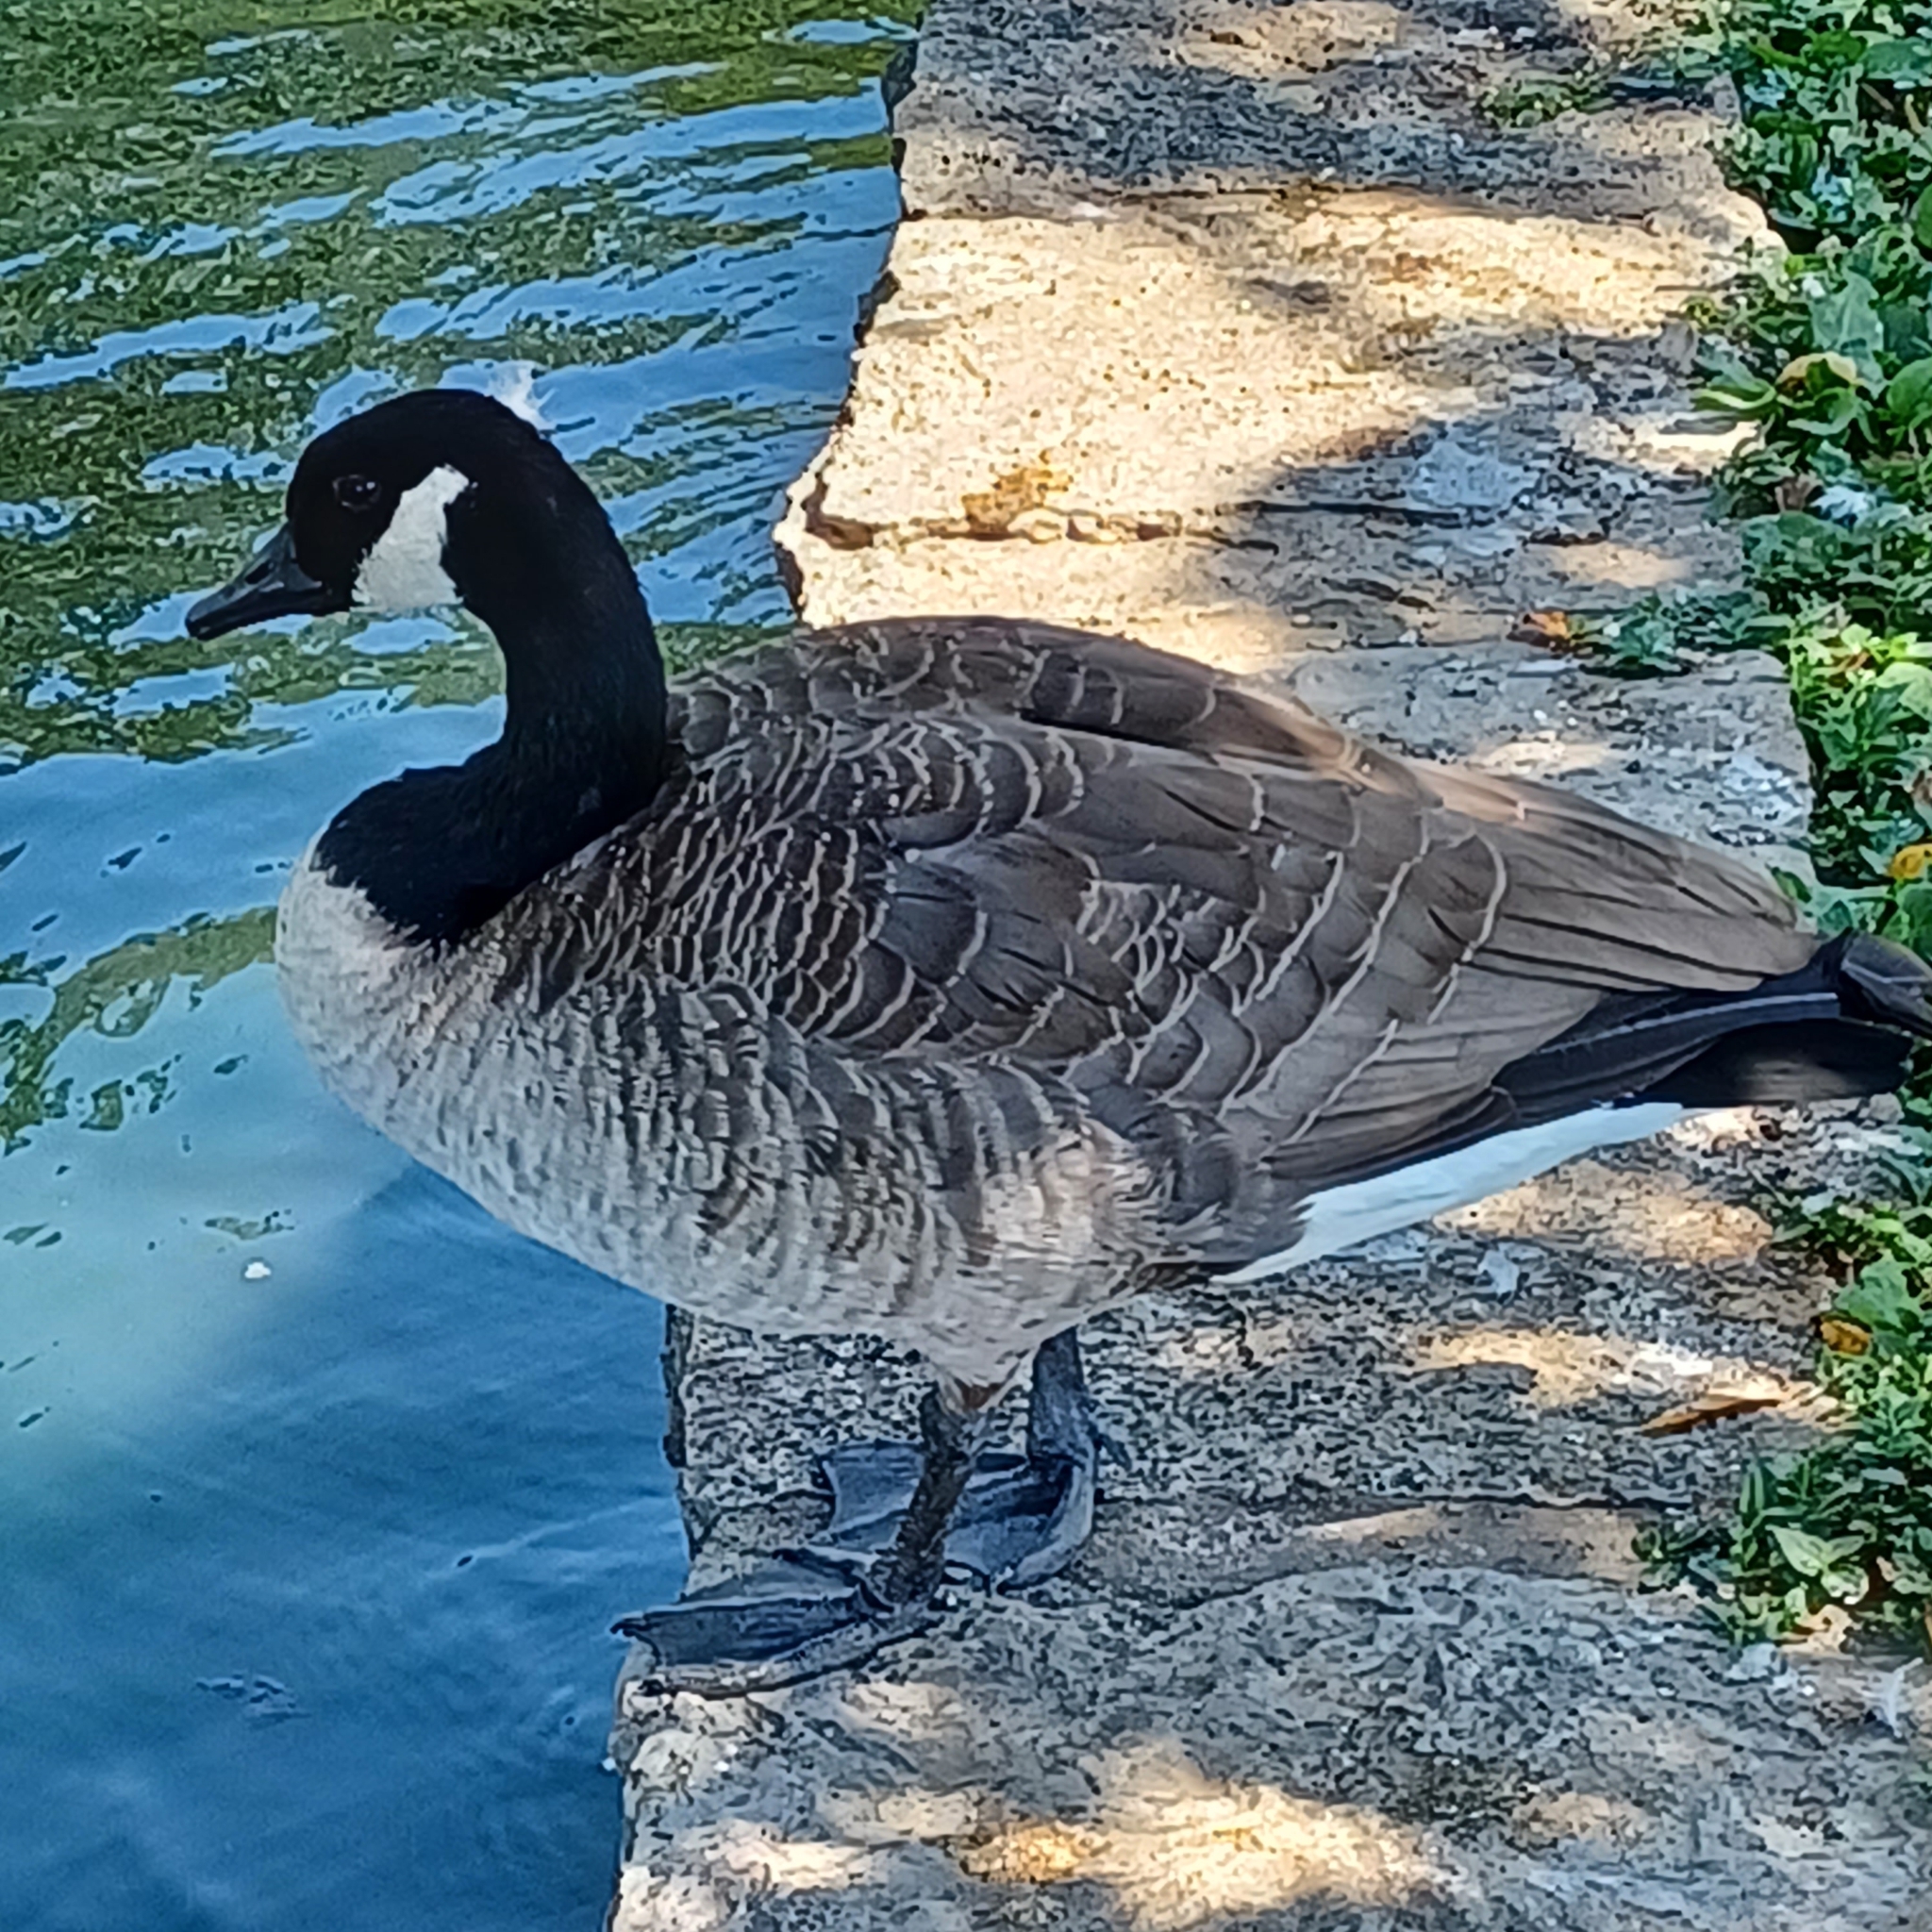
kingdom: Animalia
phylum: Chordata
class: Aves
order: Anseriformes
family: Anatidae
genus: Branta
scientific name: Branta canadensis
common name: Canada goose
